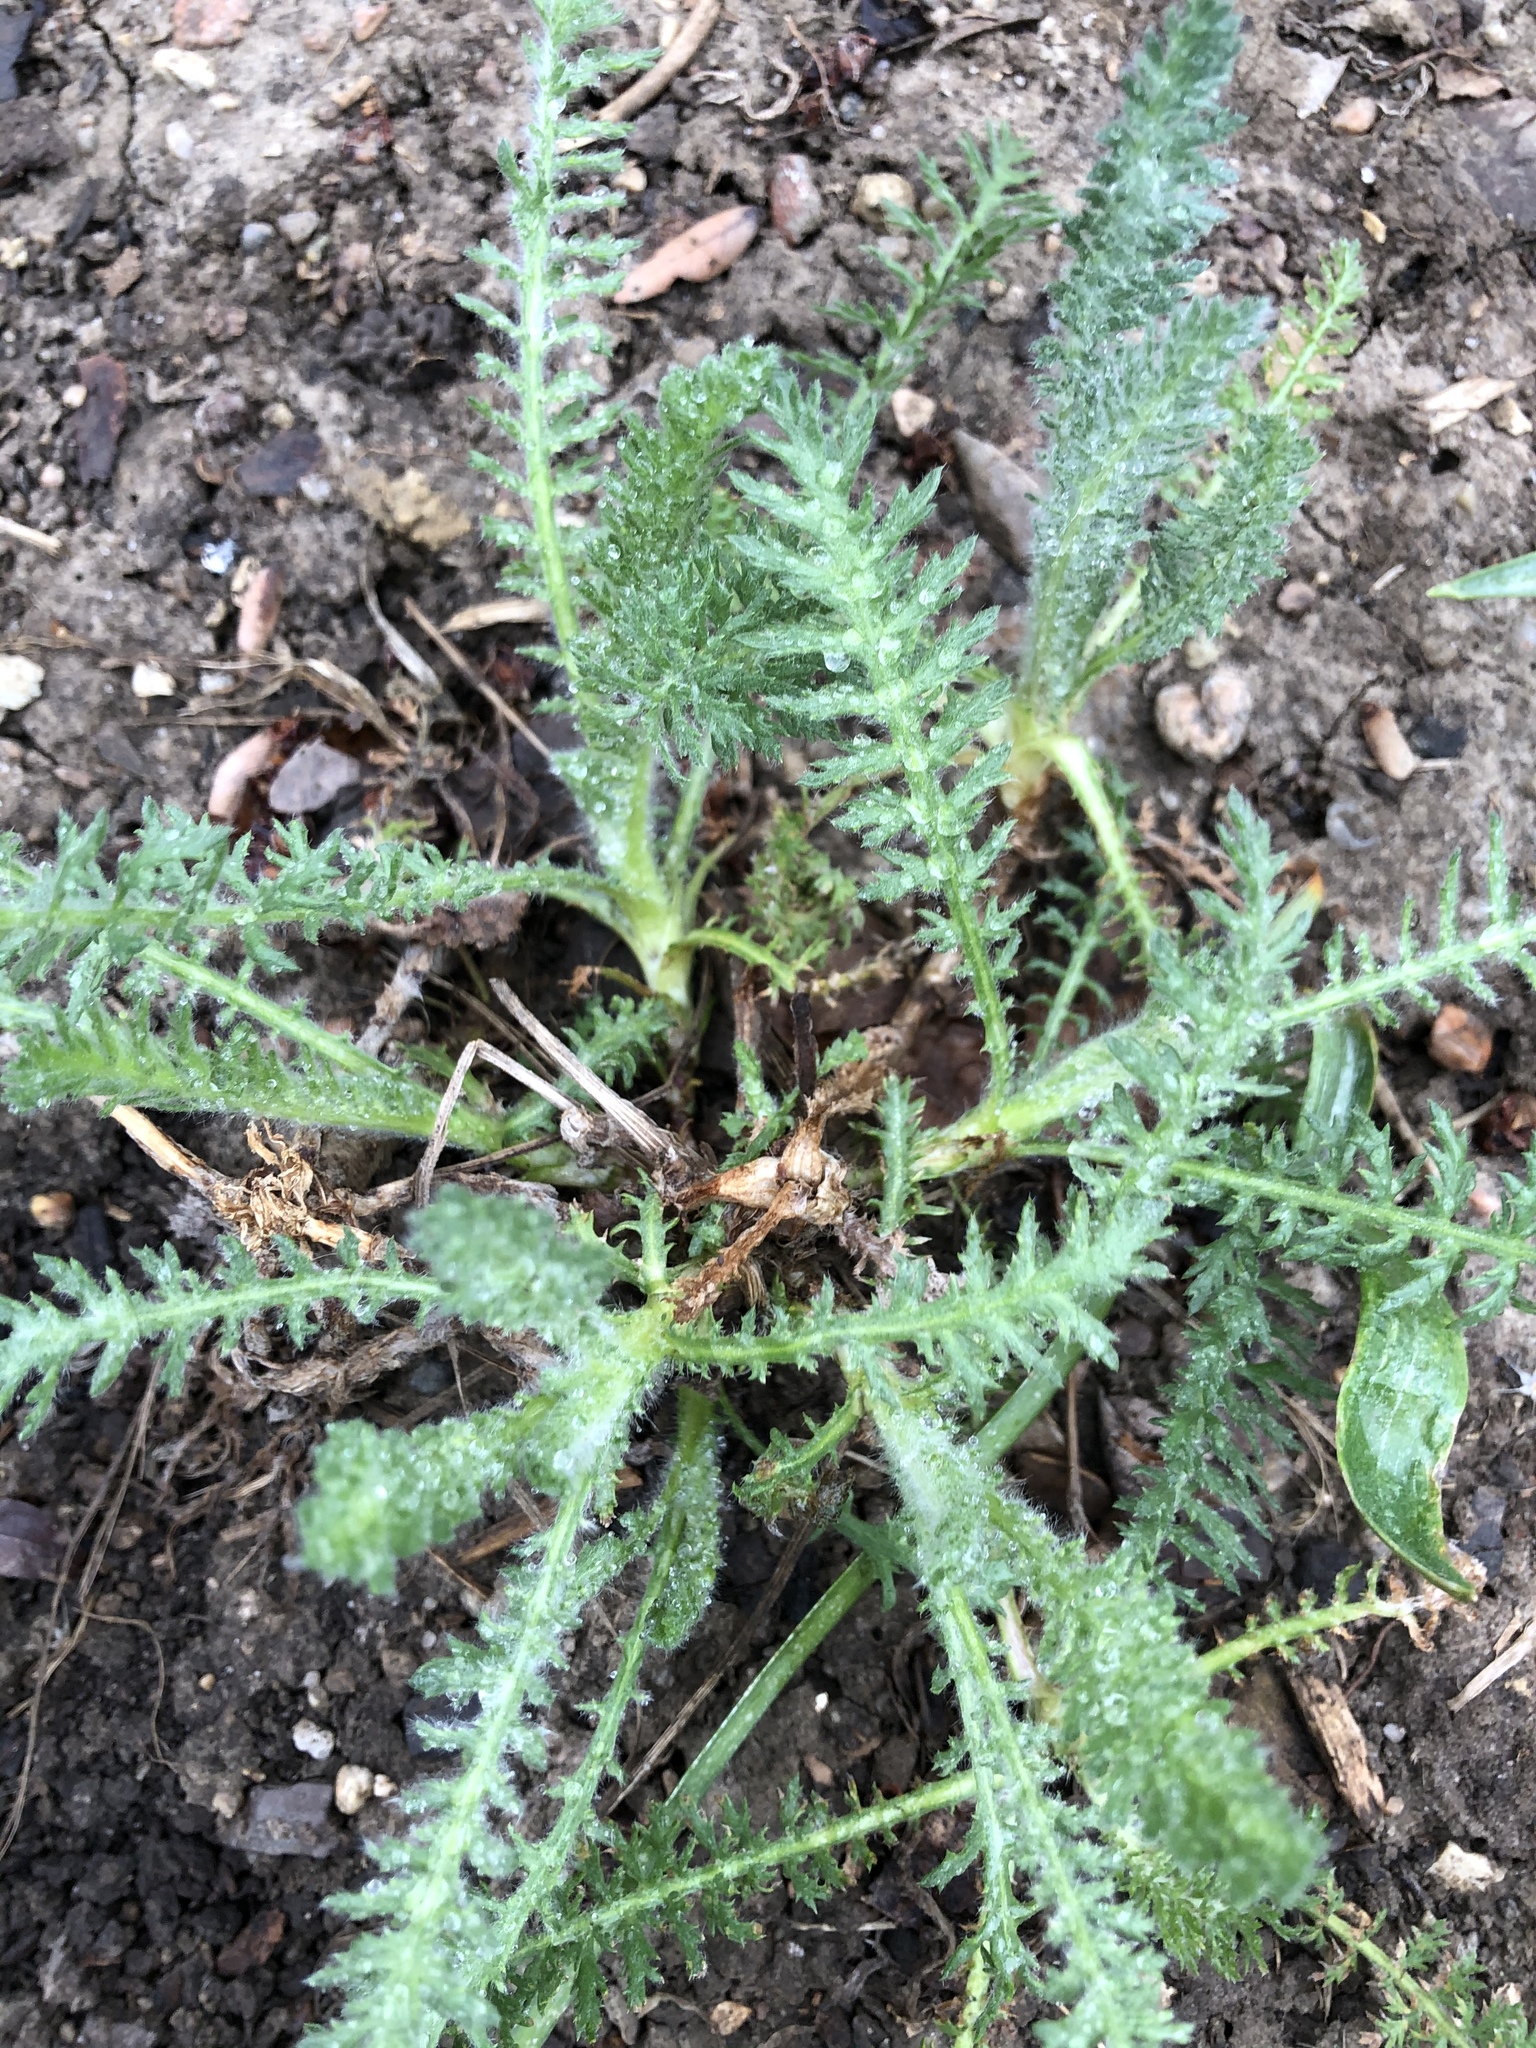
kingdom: Plantae
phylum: Tracheophyta
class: Magnoliopsida
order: Asterales
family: Asteraceae
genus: Achillea
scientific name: Achillea millefolium
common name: Yarrow
